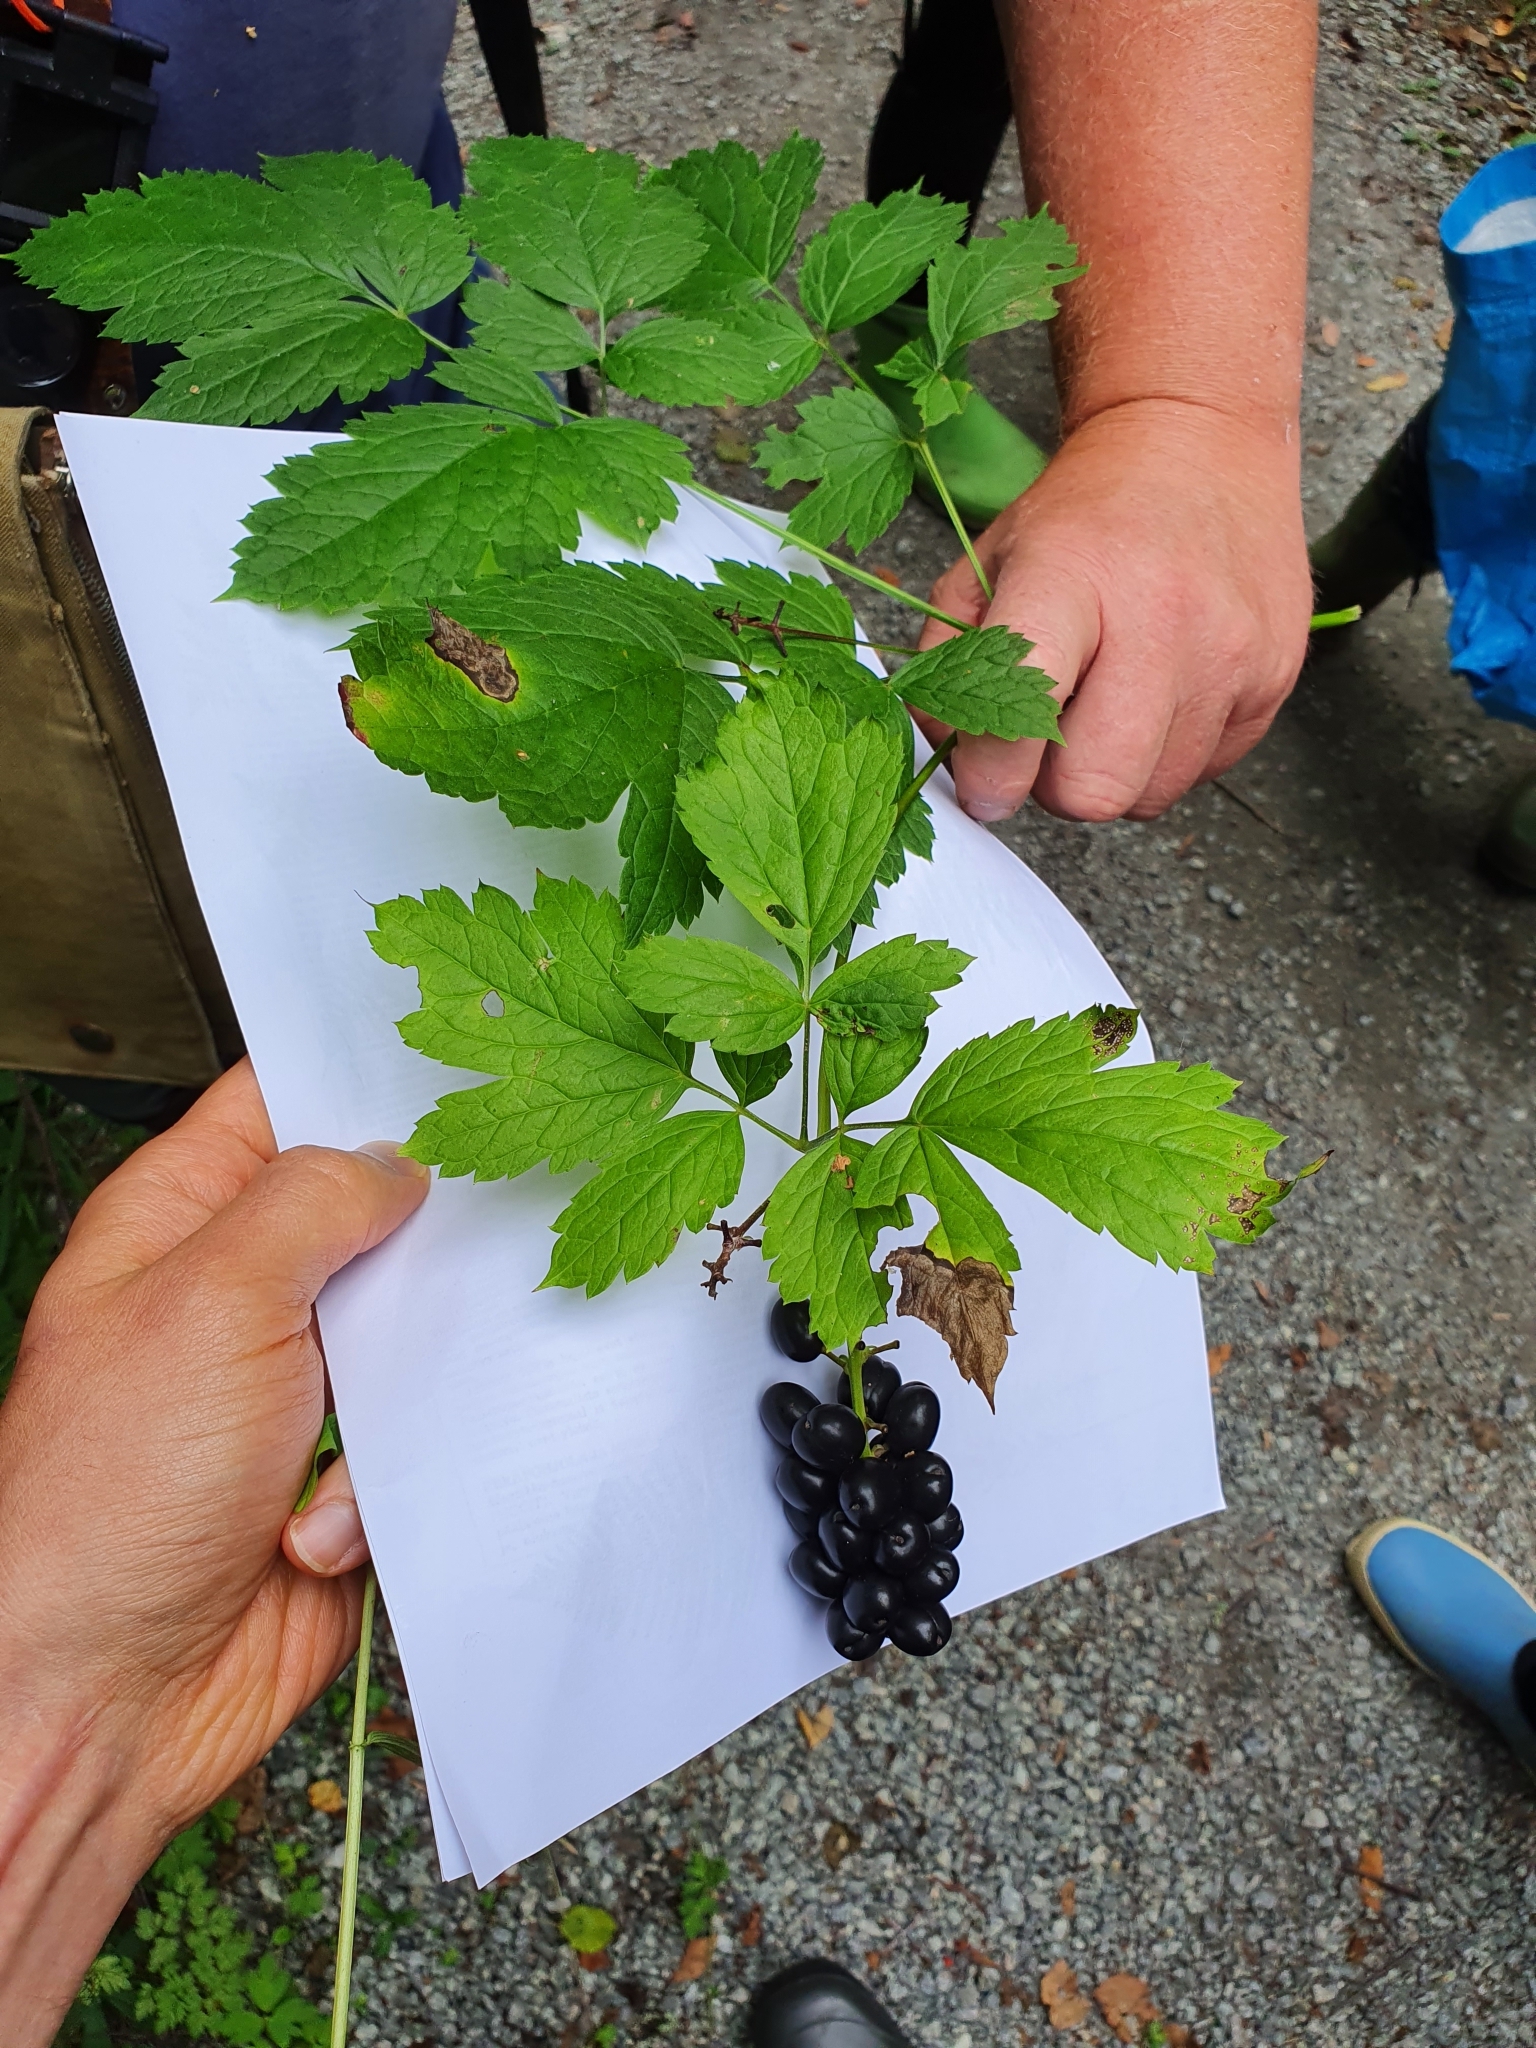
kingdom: Plantae
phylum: Tracheophyta
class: Magnoliopsida
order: Ranunculales
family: Ranunculaceae
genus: Actaea
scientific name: Actaea spicata
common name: Baneberry
